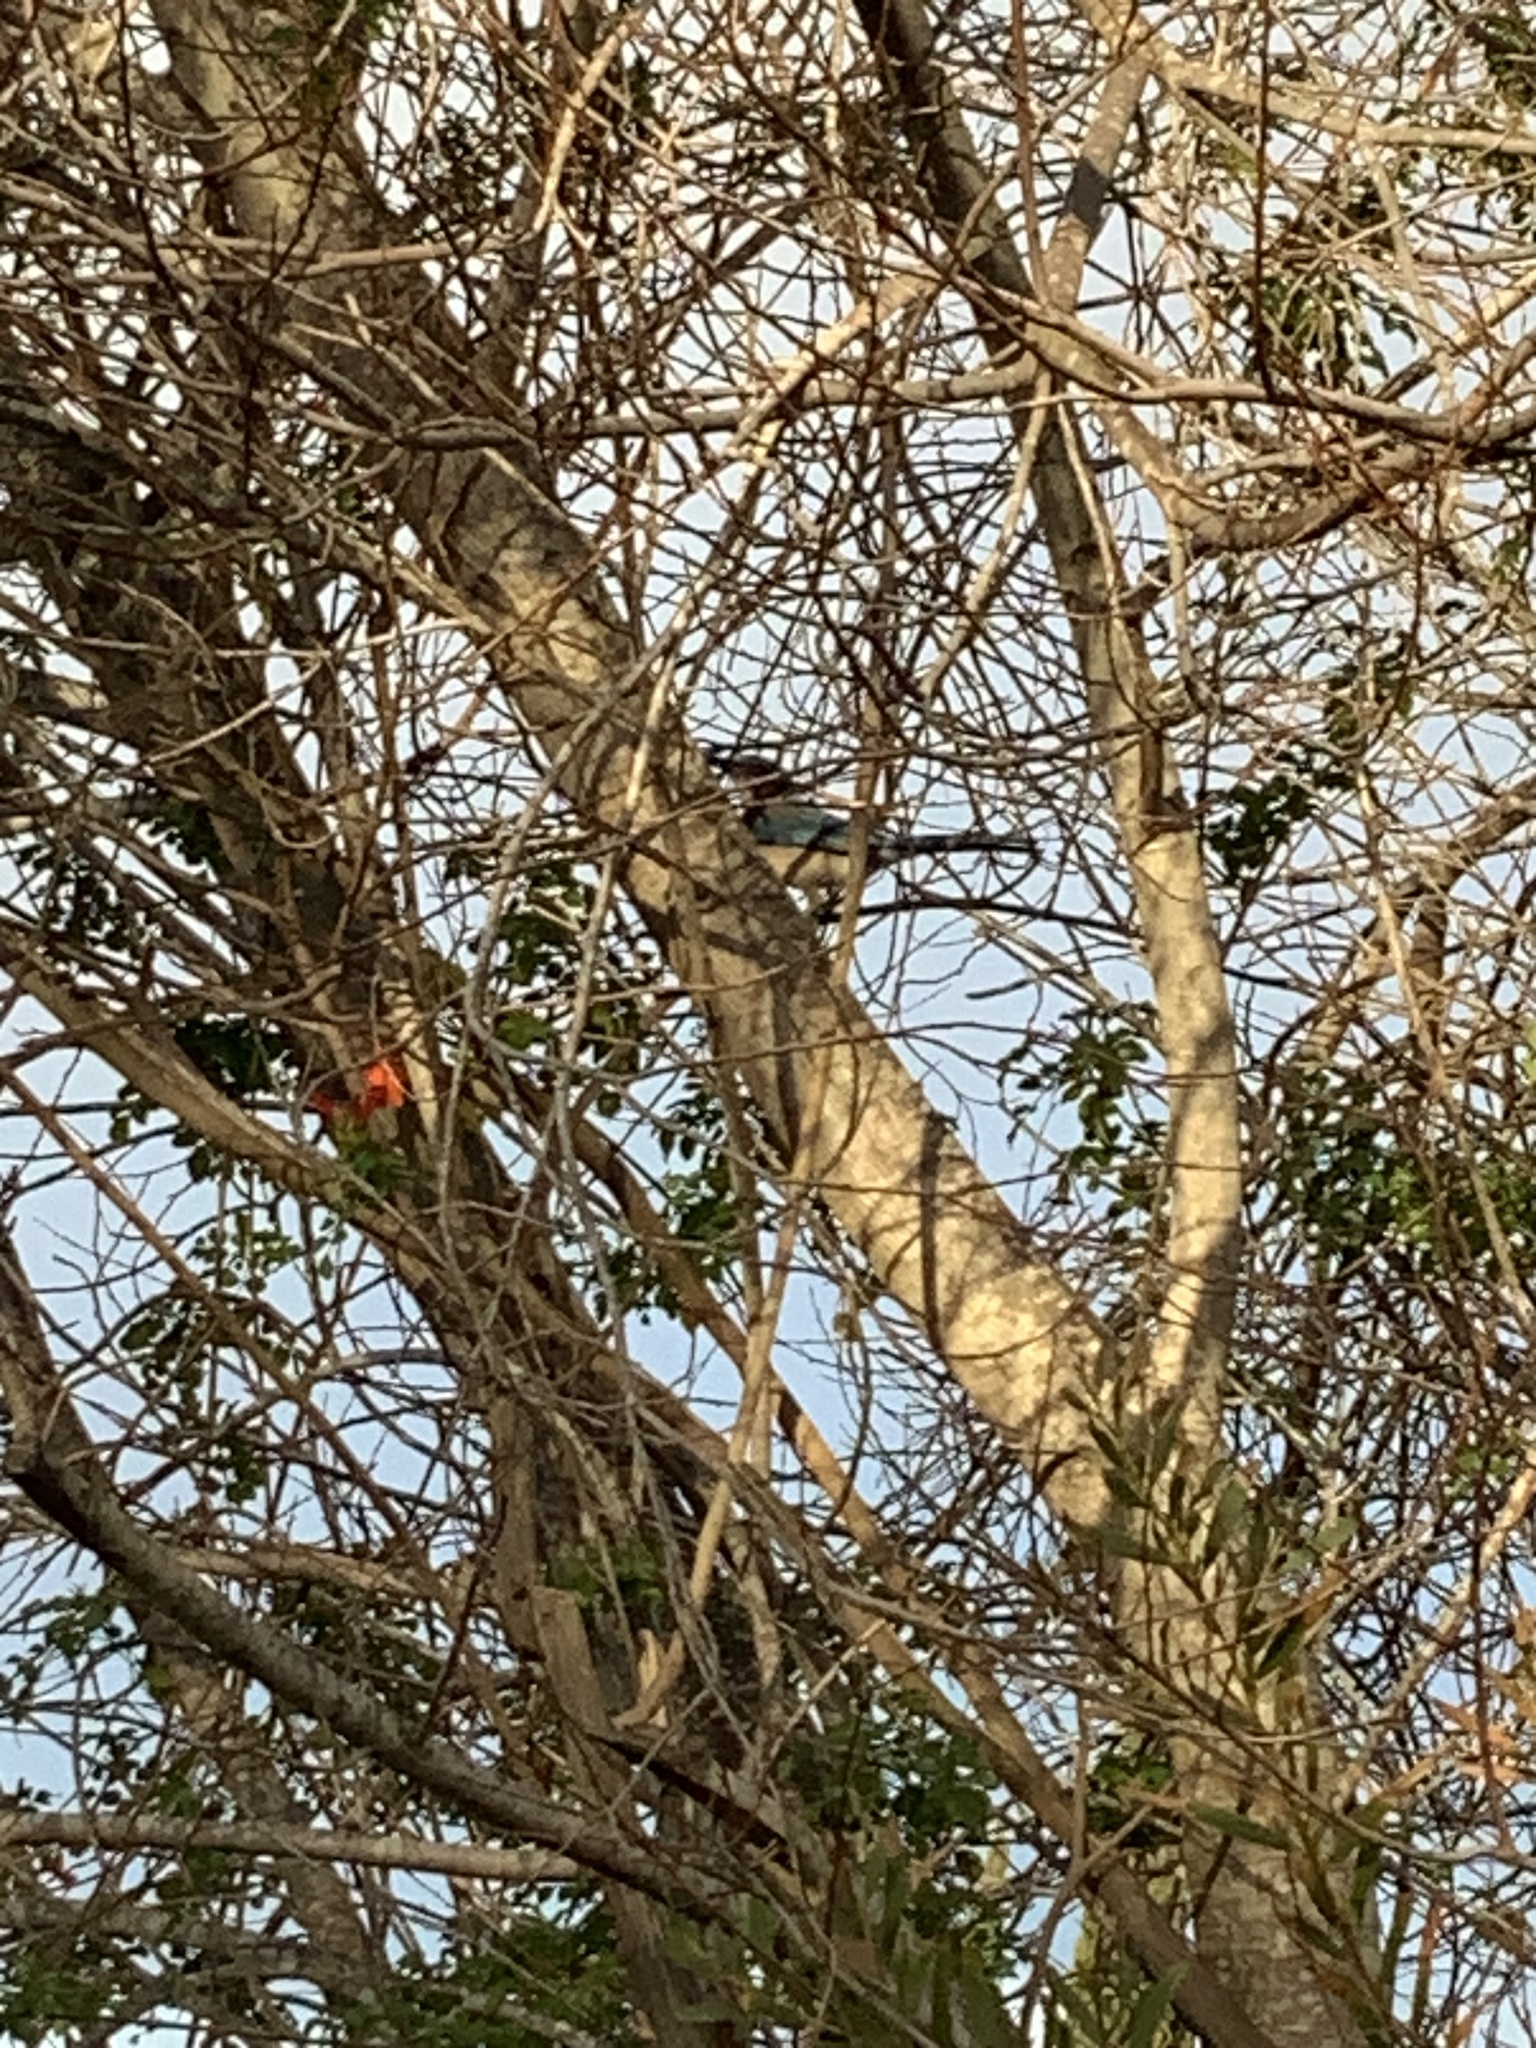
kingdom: Animalia
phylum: Chordata
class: Aves
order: Passeriformes
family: Corvidae
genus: Aphelocoma
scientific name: Aphelocoma californica
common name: California scrub-jay
